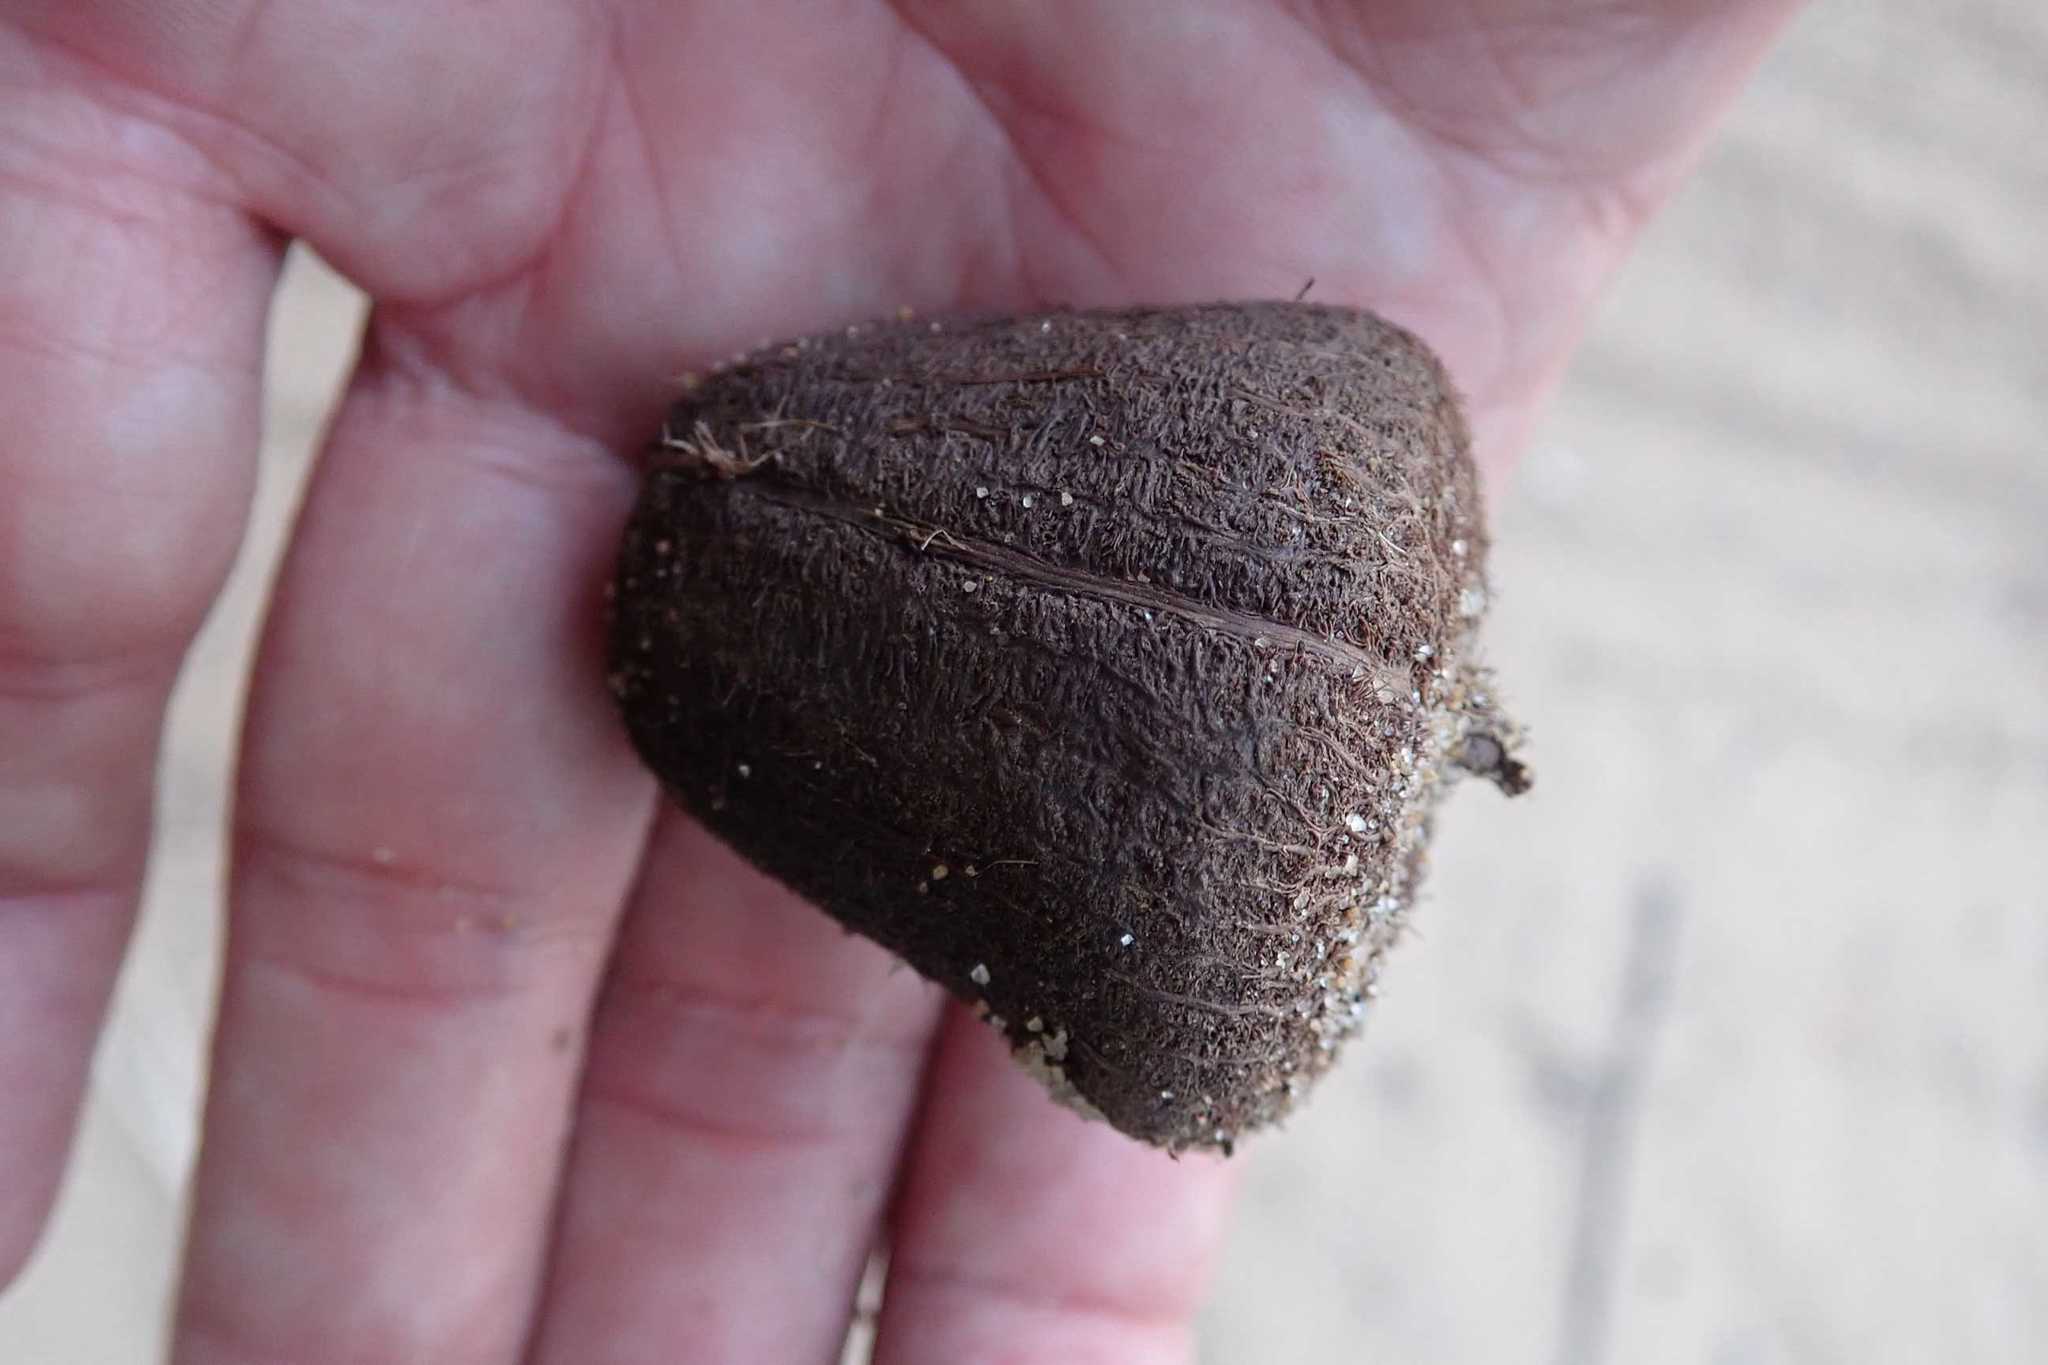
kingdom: Plantae
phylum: Tracheophyta
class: Liliopsida
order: Arecales
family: Arecaceae
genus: Hyphaene
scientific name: Hyphaene coriacea
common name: Ilala palm
